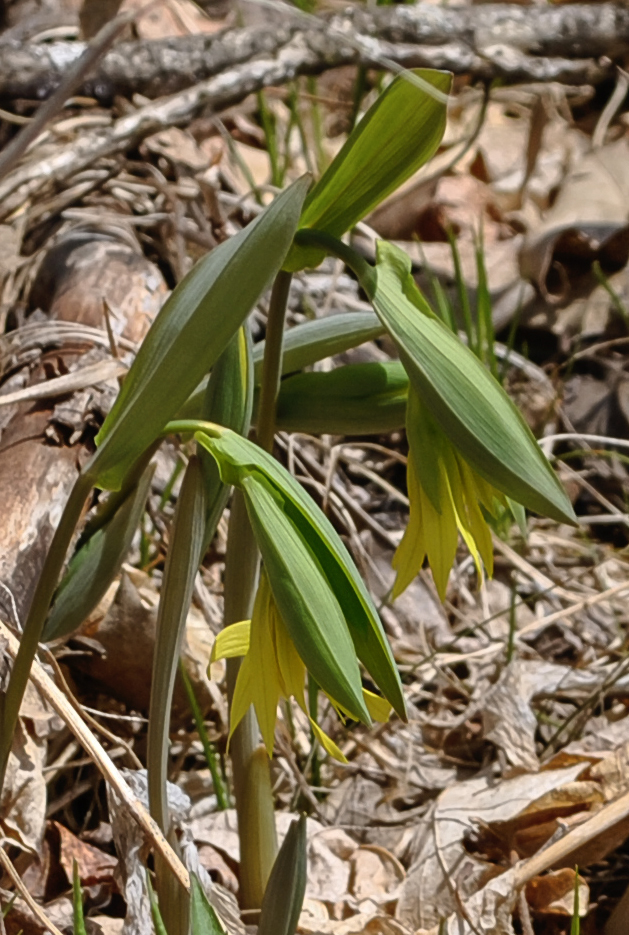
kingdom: Plantae
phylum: Tracheophyta
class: Liliopsida
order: Liliales
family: Colchicaceae
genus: Uvularia
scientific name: Uvularia grandiflora
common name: Bellwort
